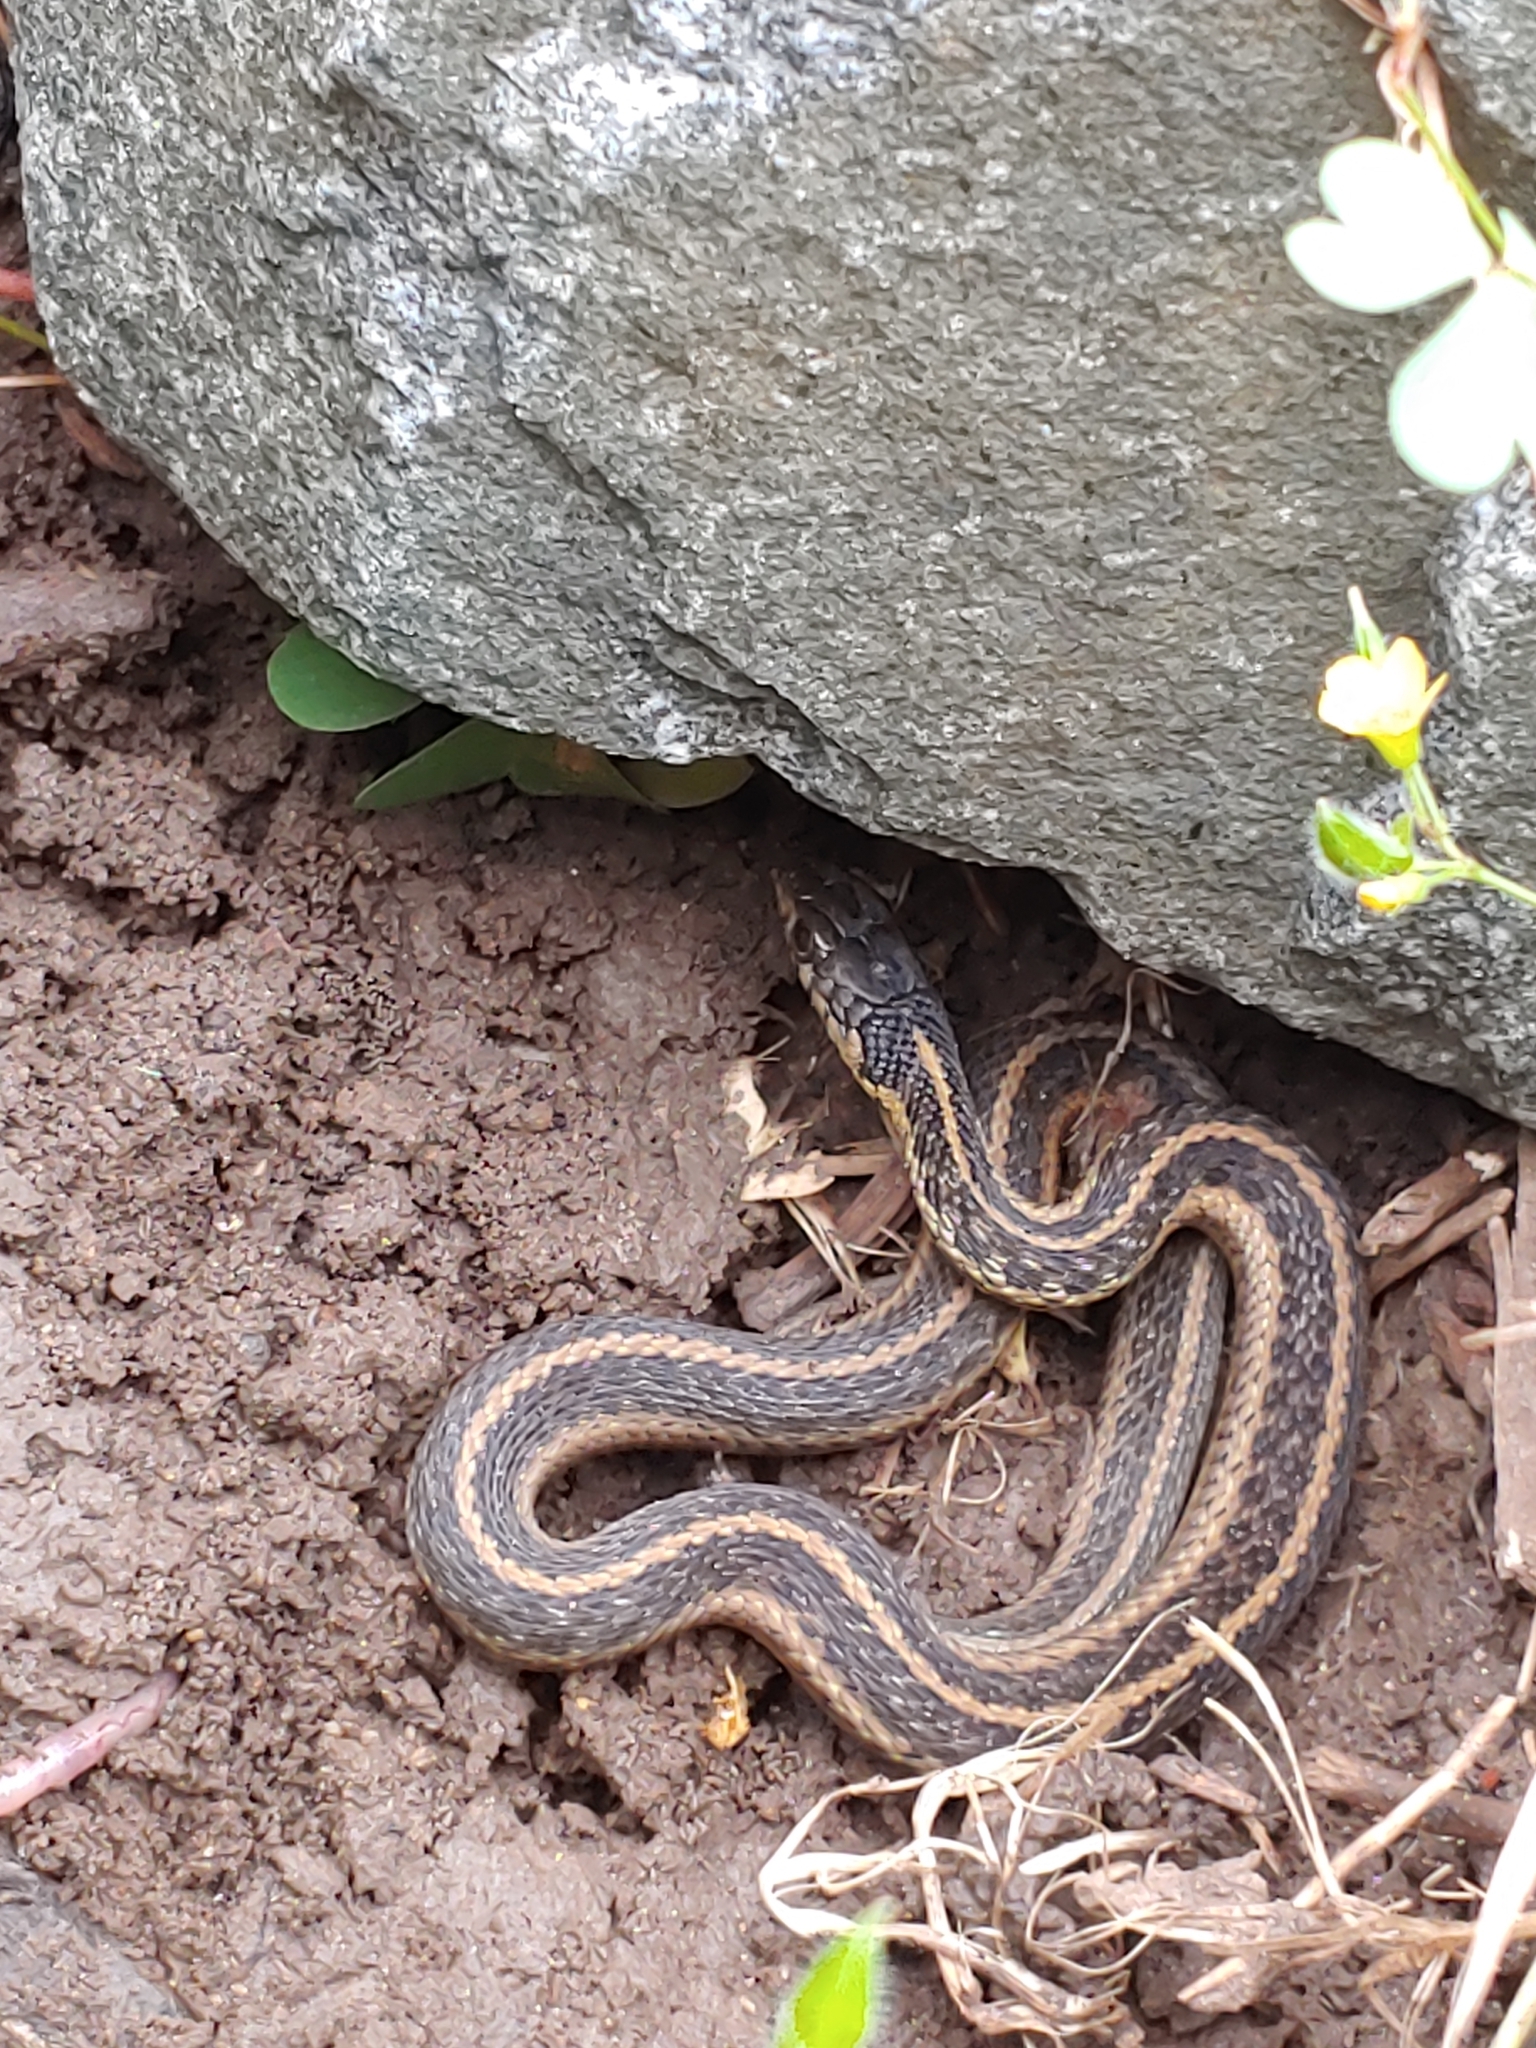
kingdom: Animalia
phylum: Chordata
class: Squamata
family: Colubridae
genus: Thamnophis
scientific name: Thamnophis sirtalis
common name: Common garter snake
